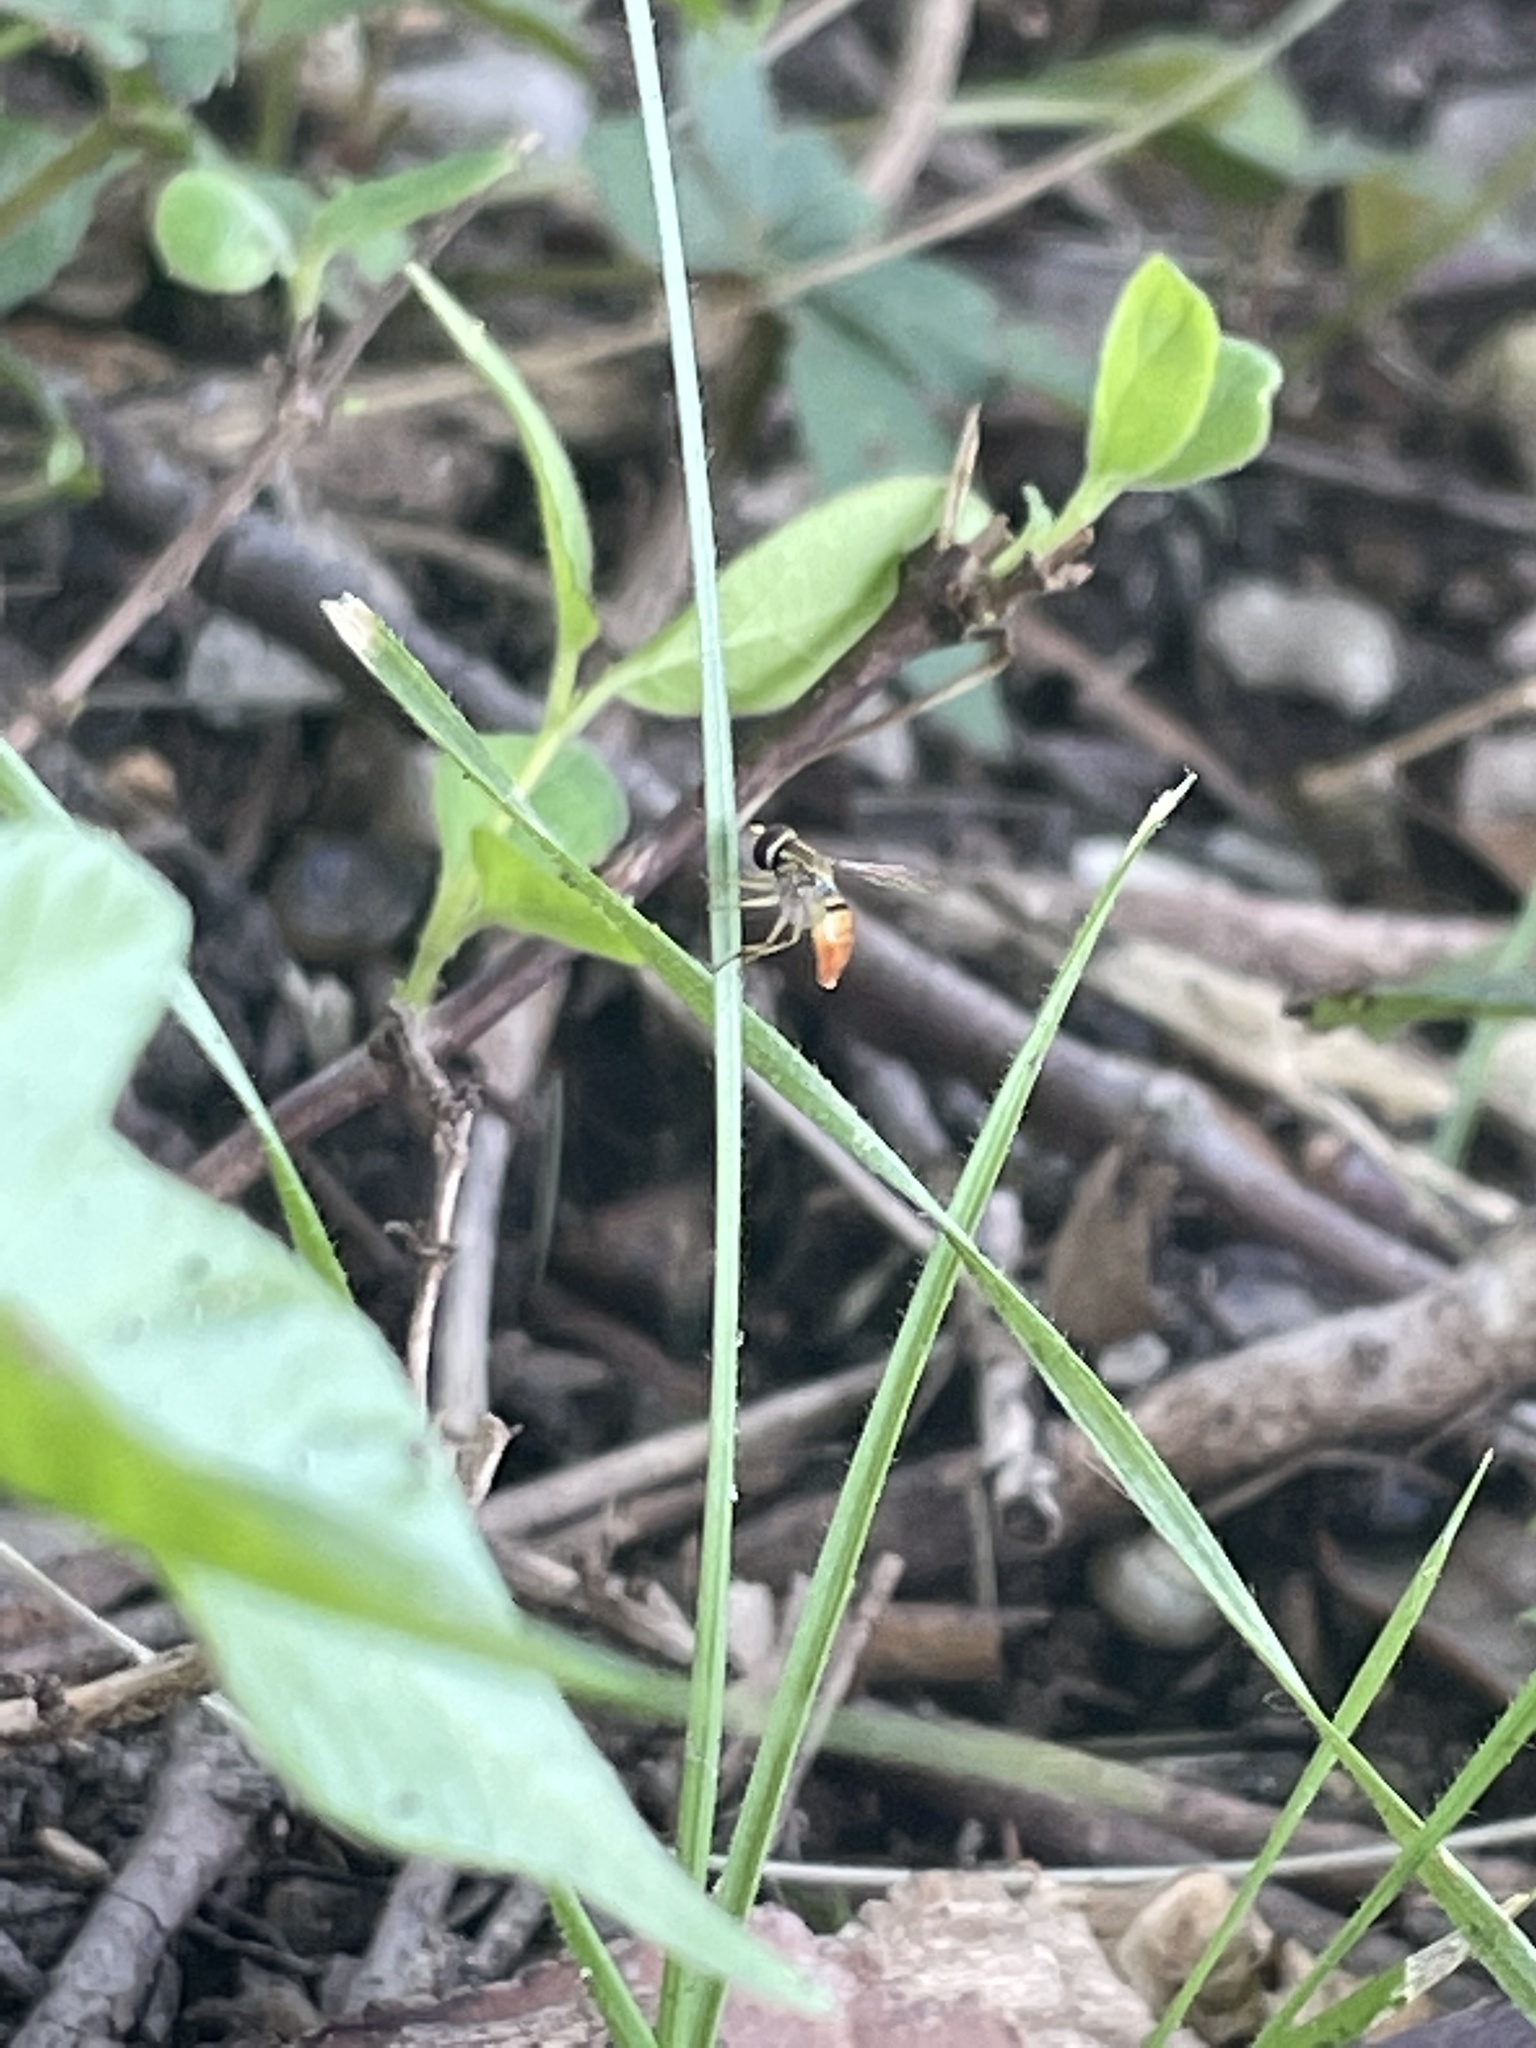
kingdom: Animalia
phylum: Arthropoda
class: Insecta
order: Diptera
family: Syrphidae
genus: Toxomerus
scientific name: Toxomerus
